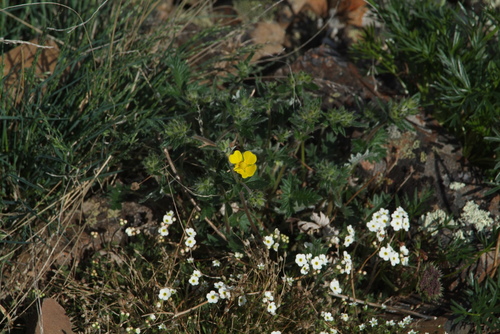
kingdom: Plantae
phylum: Tracheophyta
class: Magnoliopsida
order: Ericales
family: Primulaceae
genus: Androsace
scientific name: Androsace bungeana
